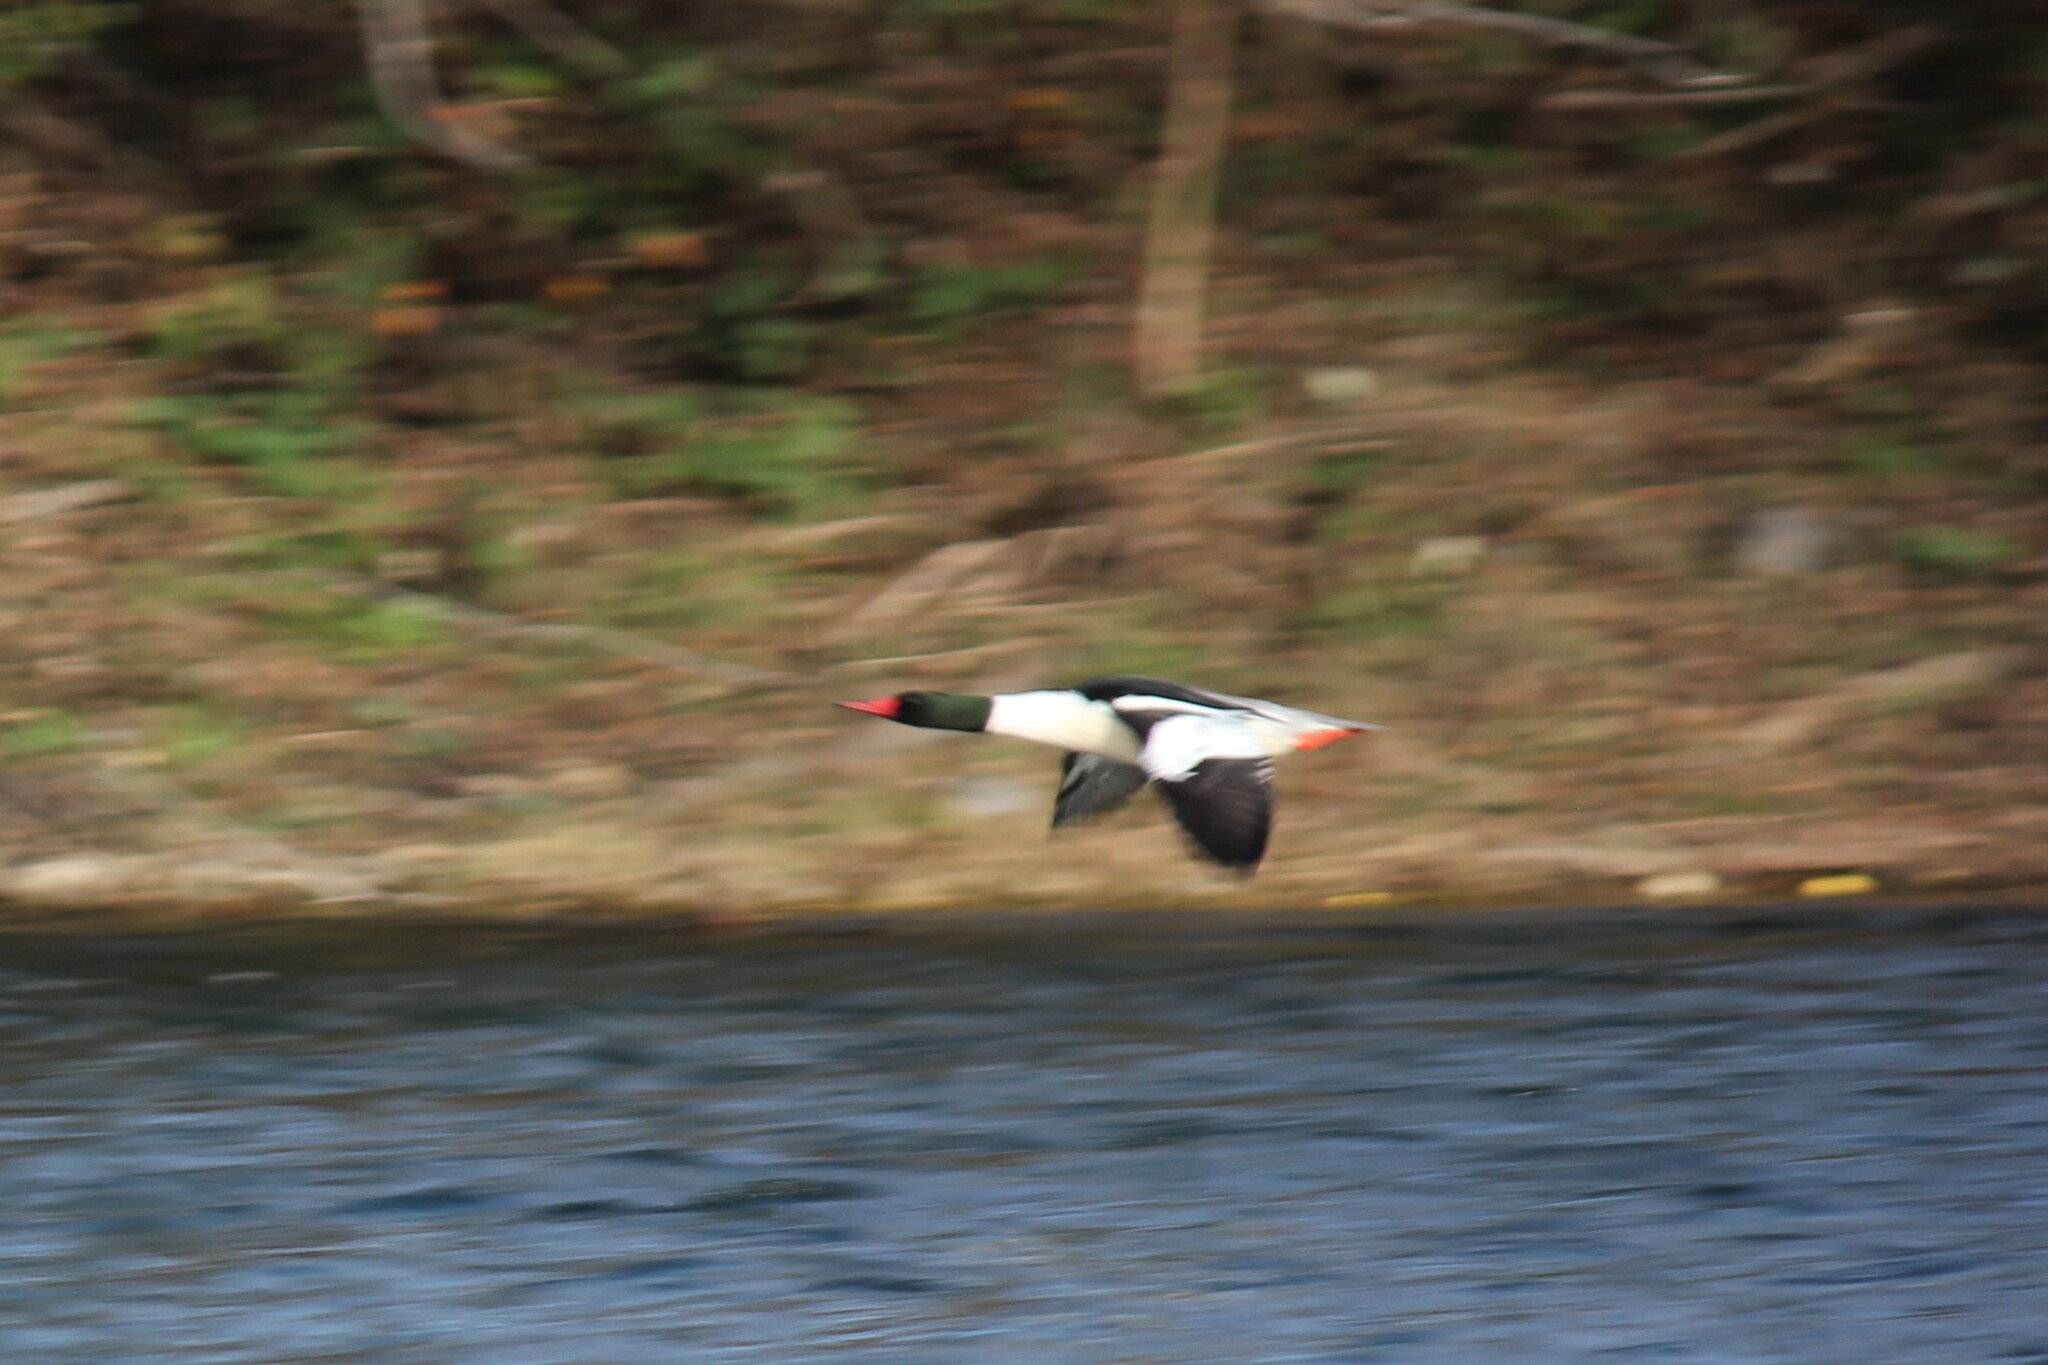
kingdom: Animalia
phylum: Chordata
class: Aves
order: Anseriformes
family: Anatidae
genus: Mergus
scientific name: Mergus merganser
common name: Common merganser
